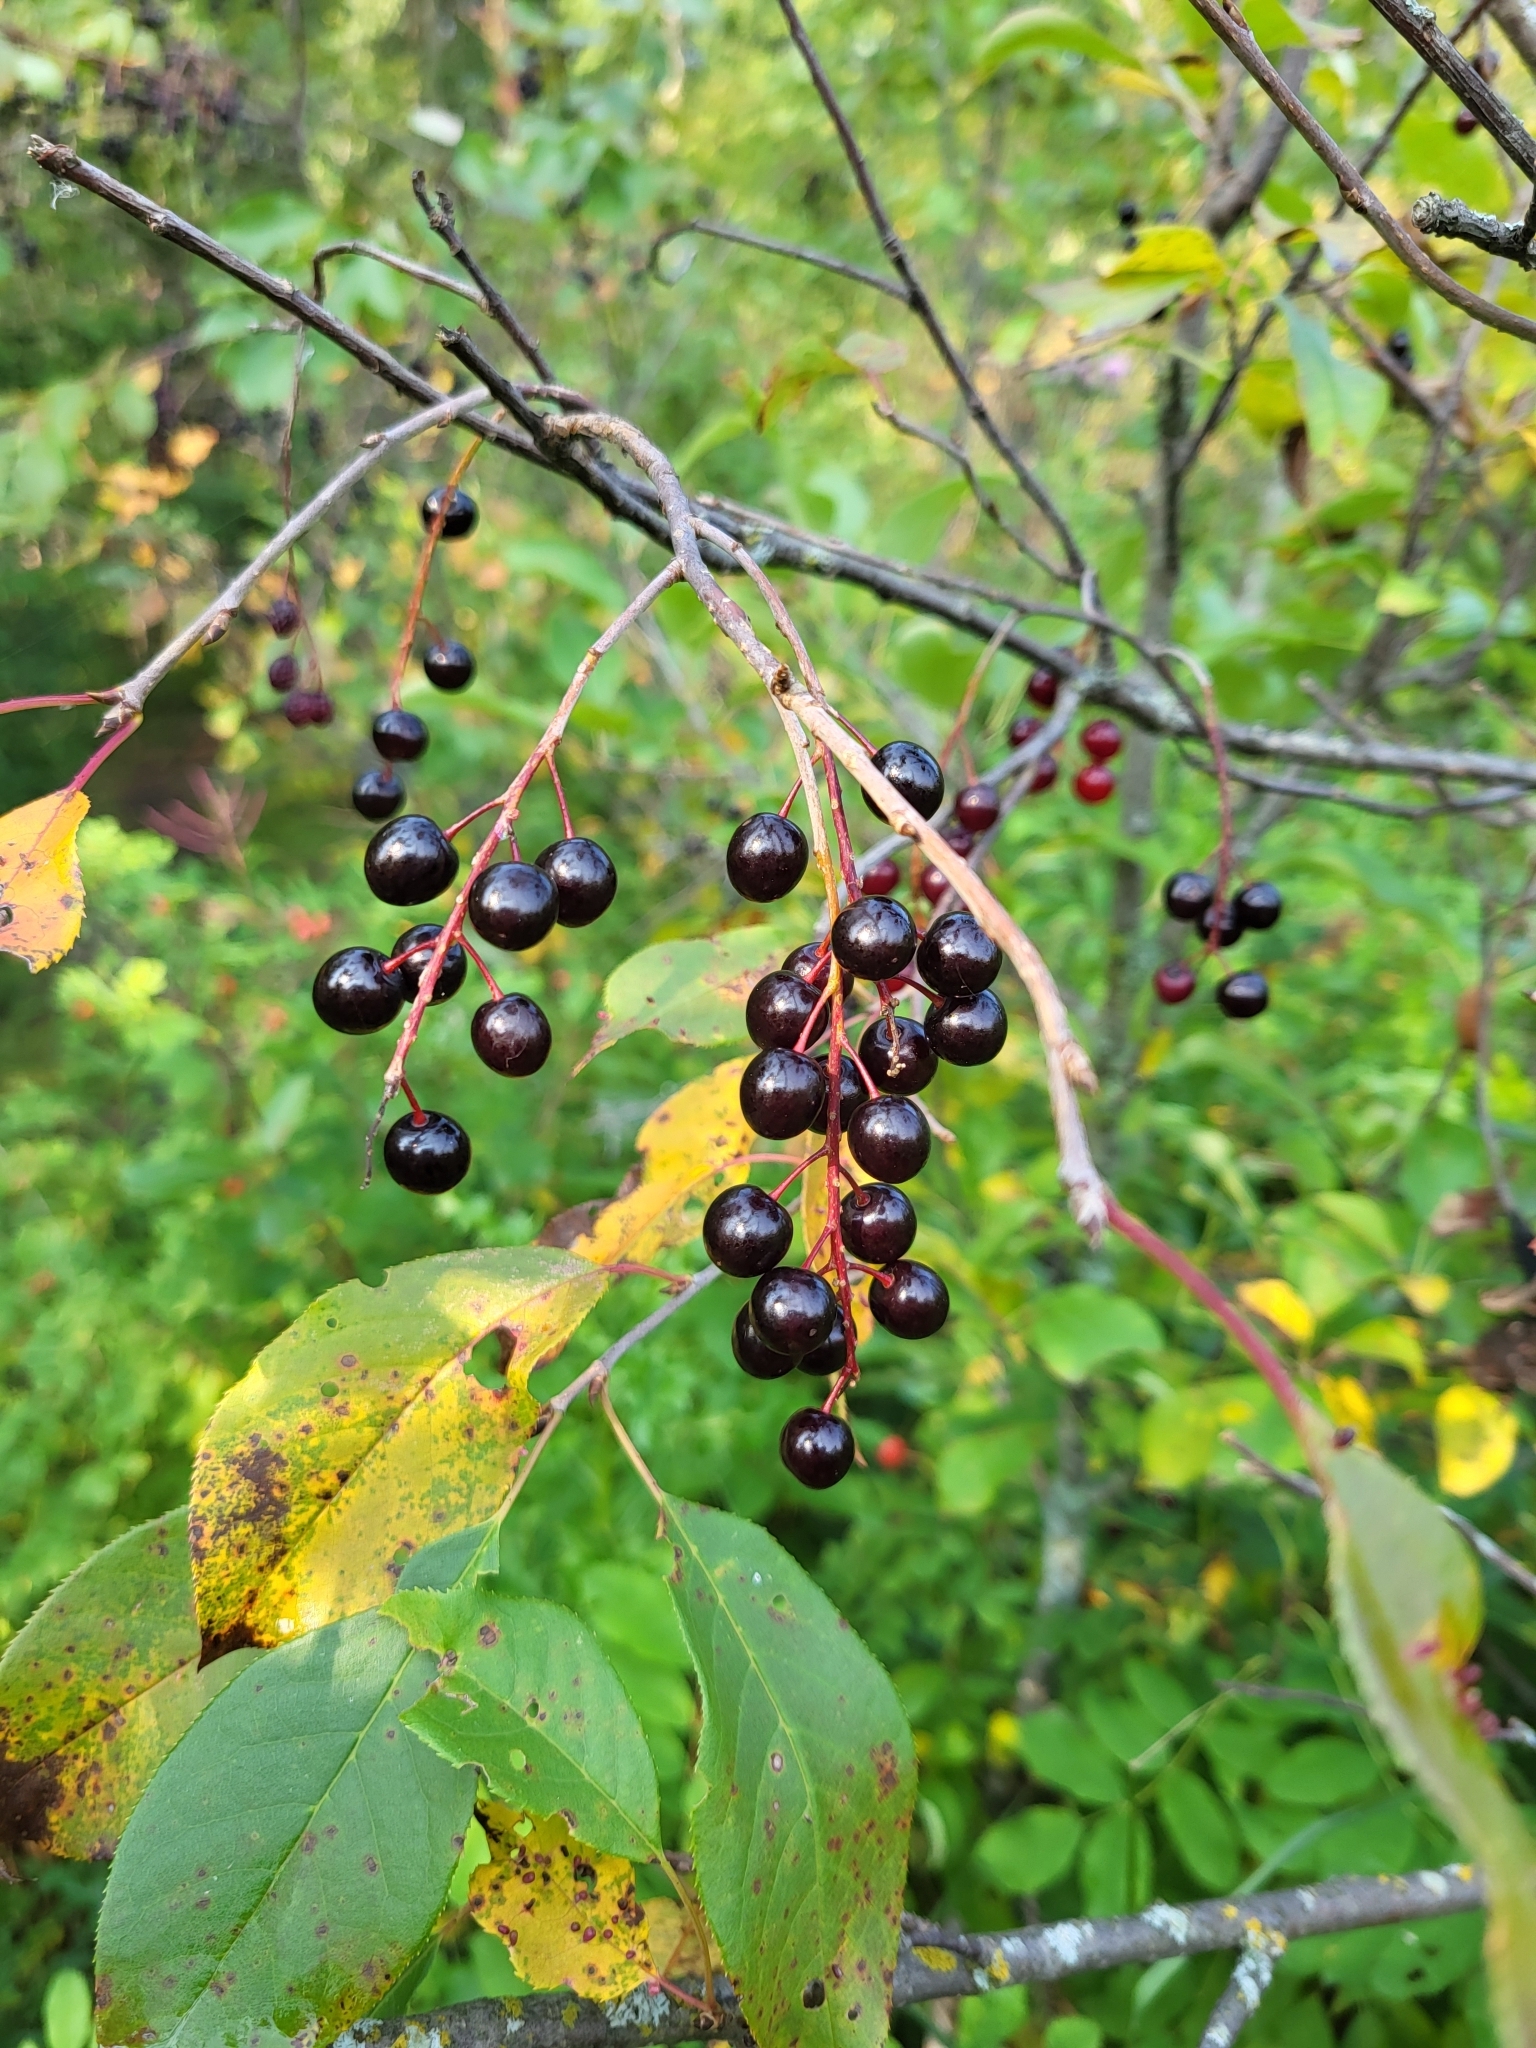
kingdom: Plantae
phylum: Tracheophyta
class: Magnoliopsida
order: Rosales
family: Rosaceae
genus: Prunus
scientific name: Prunus virginiana
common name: Chokecherry
